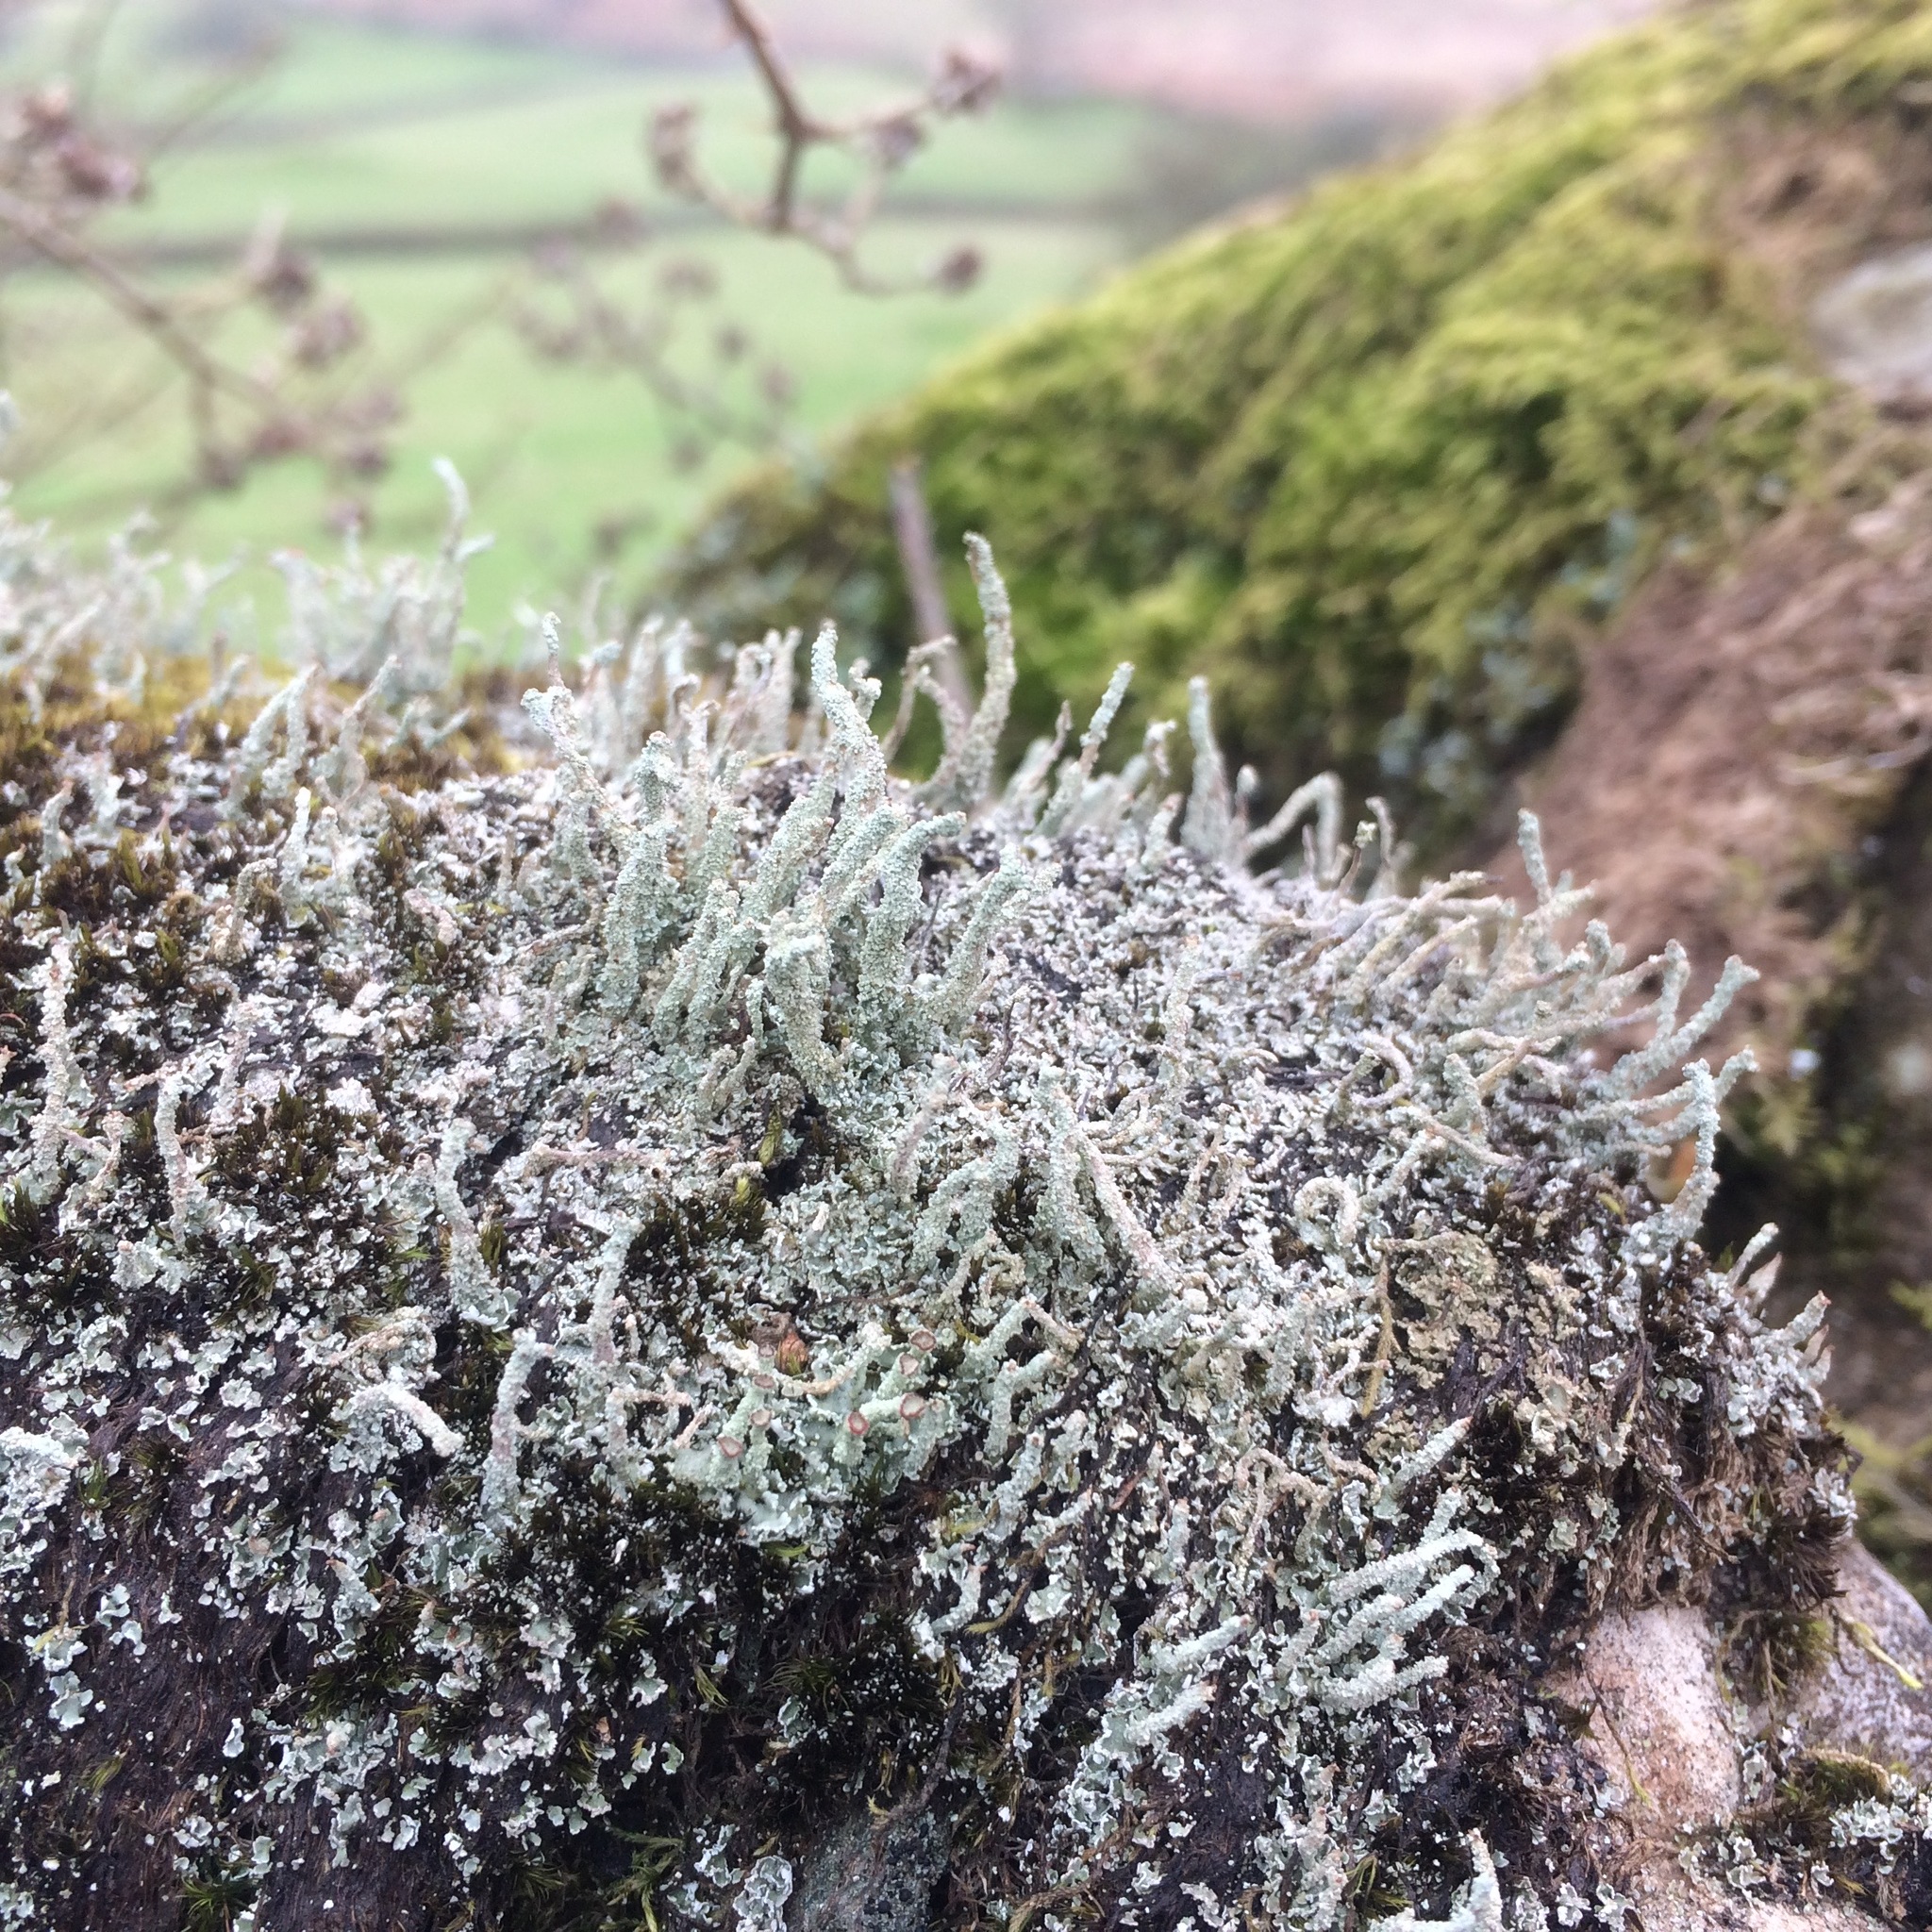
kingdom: Fungi
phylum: Ascomycota
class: Lecanoromycetes
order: Lecanorales
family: Cladoniaceae
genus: Cladonia
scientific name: Cladonia floerkeana
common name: Gritty british soldiers lichen
